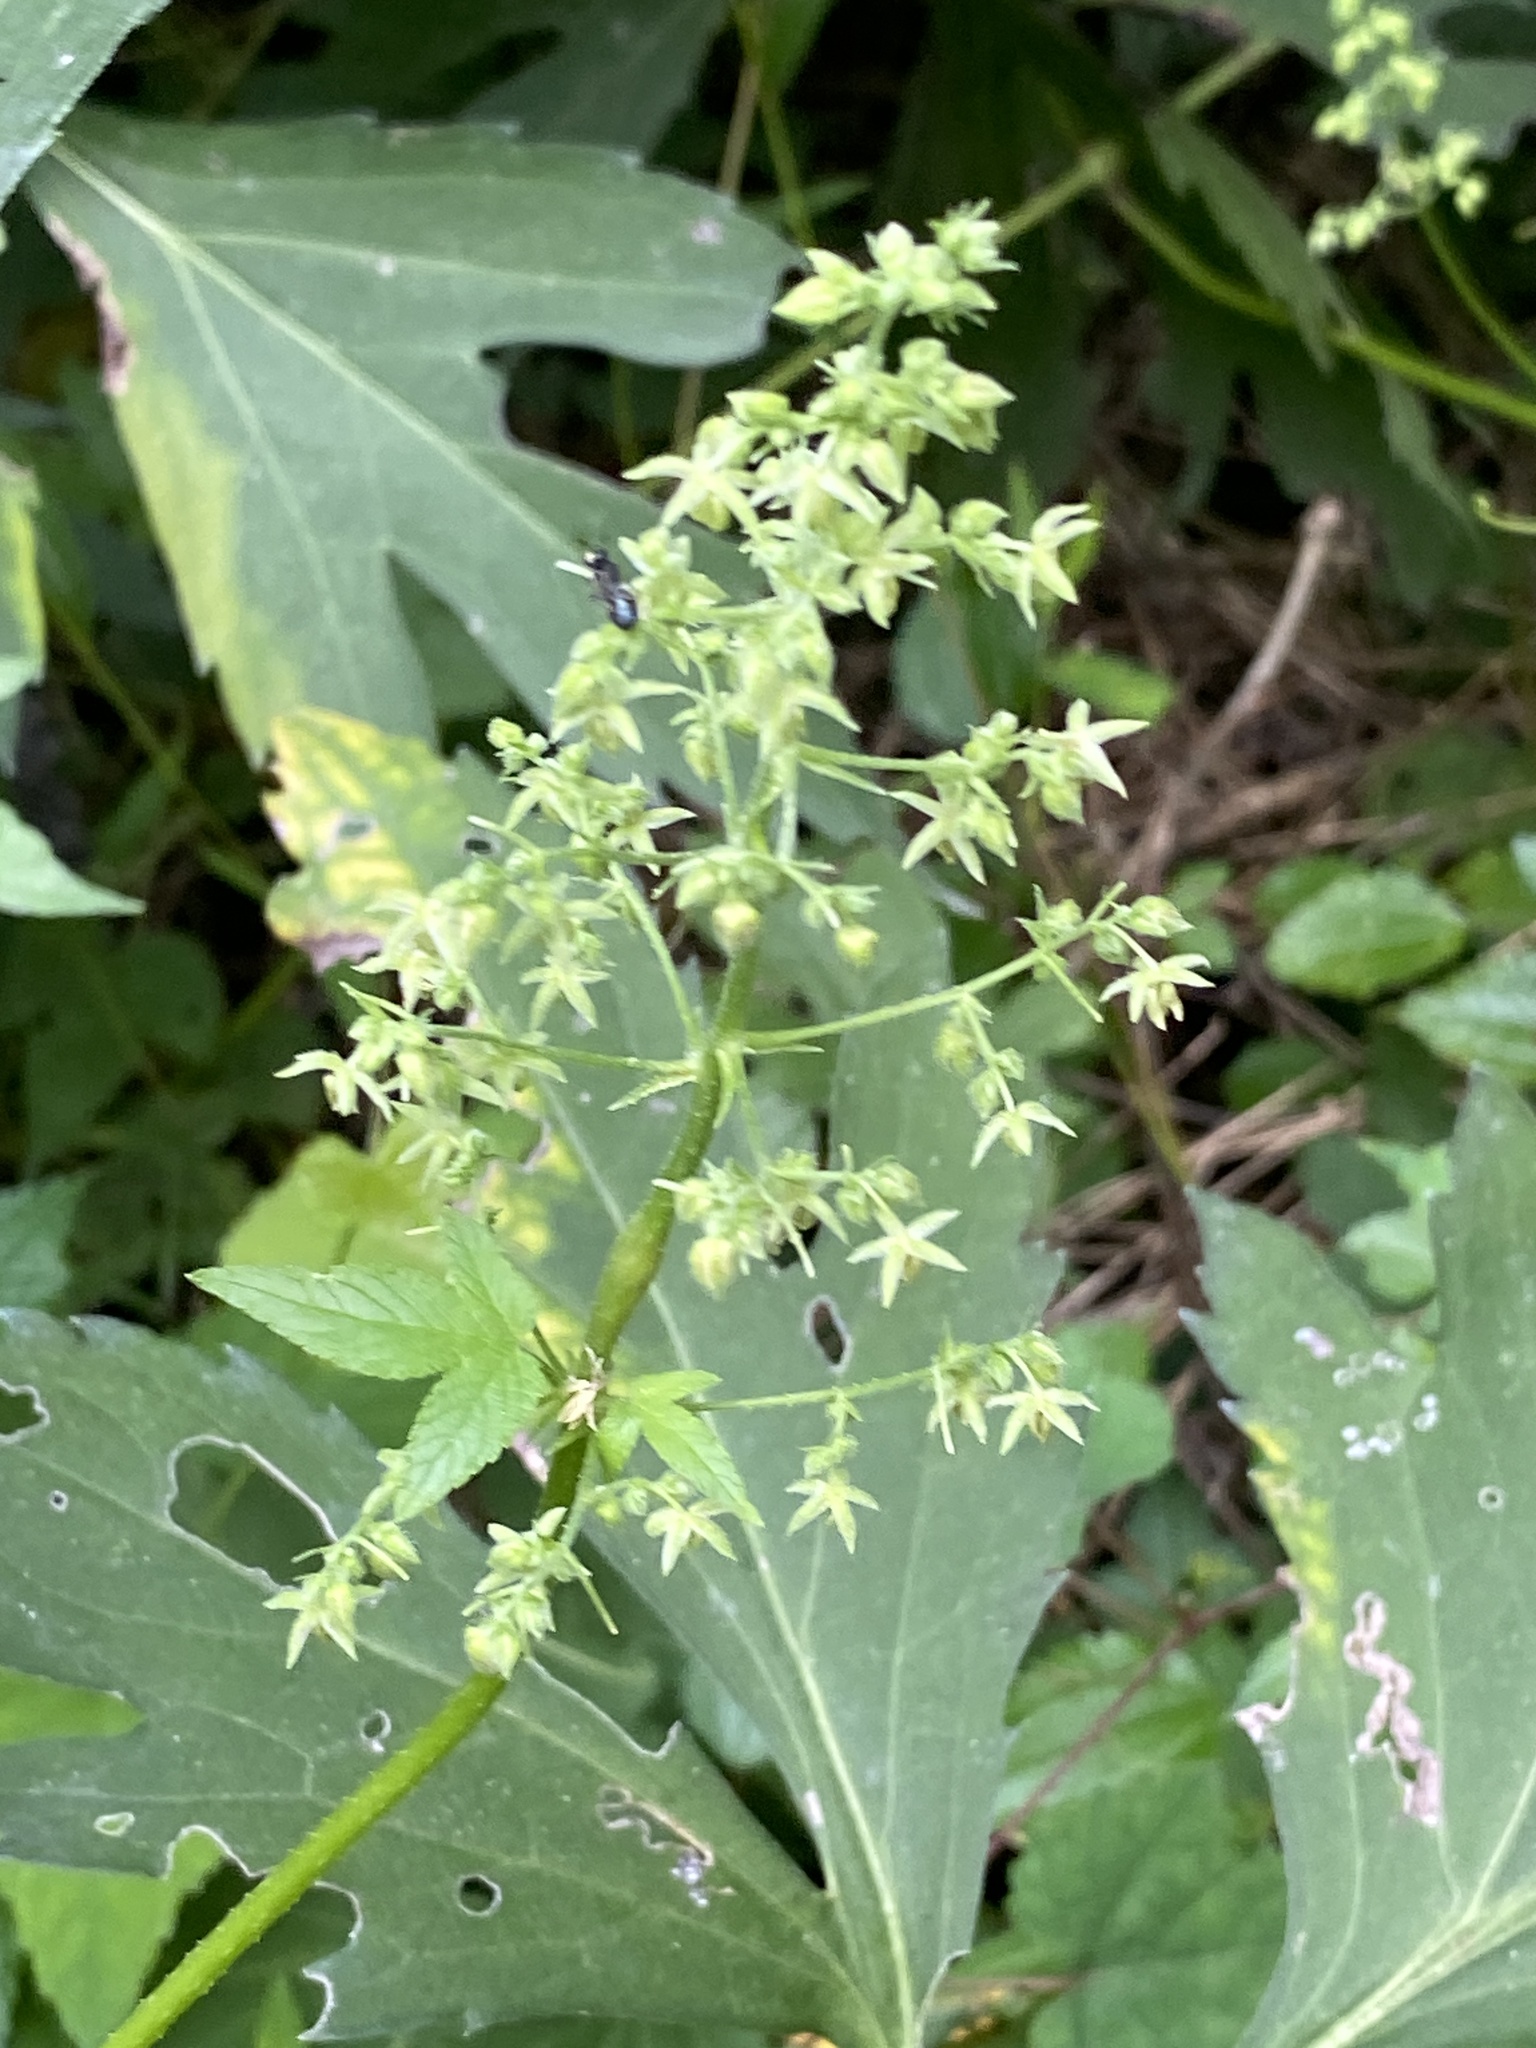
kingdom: Plantae
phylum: Tracheophyta
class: Magnoliopsida
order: Rosales
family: Cannabaceae
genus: Humulus
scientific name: Humulus scandens
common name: Japanese hop
